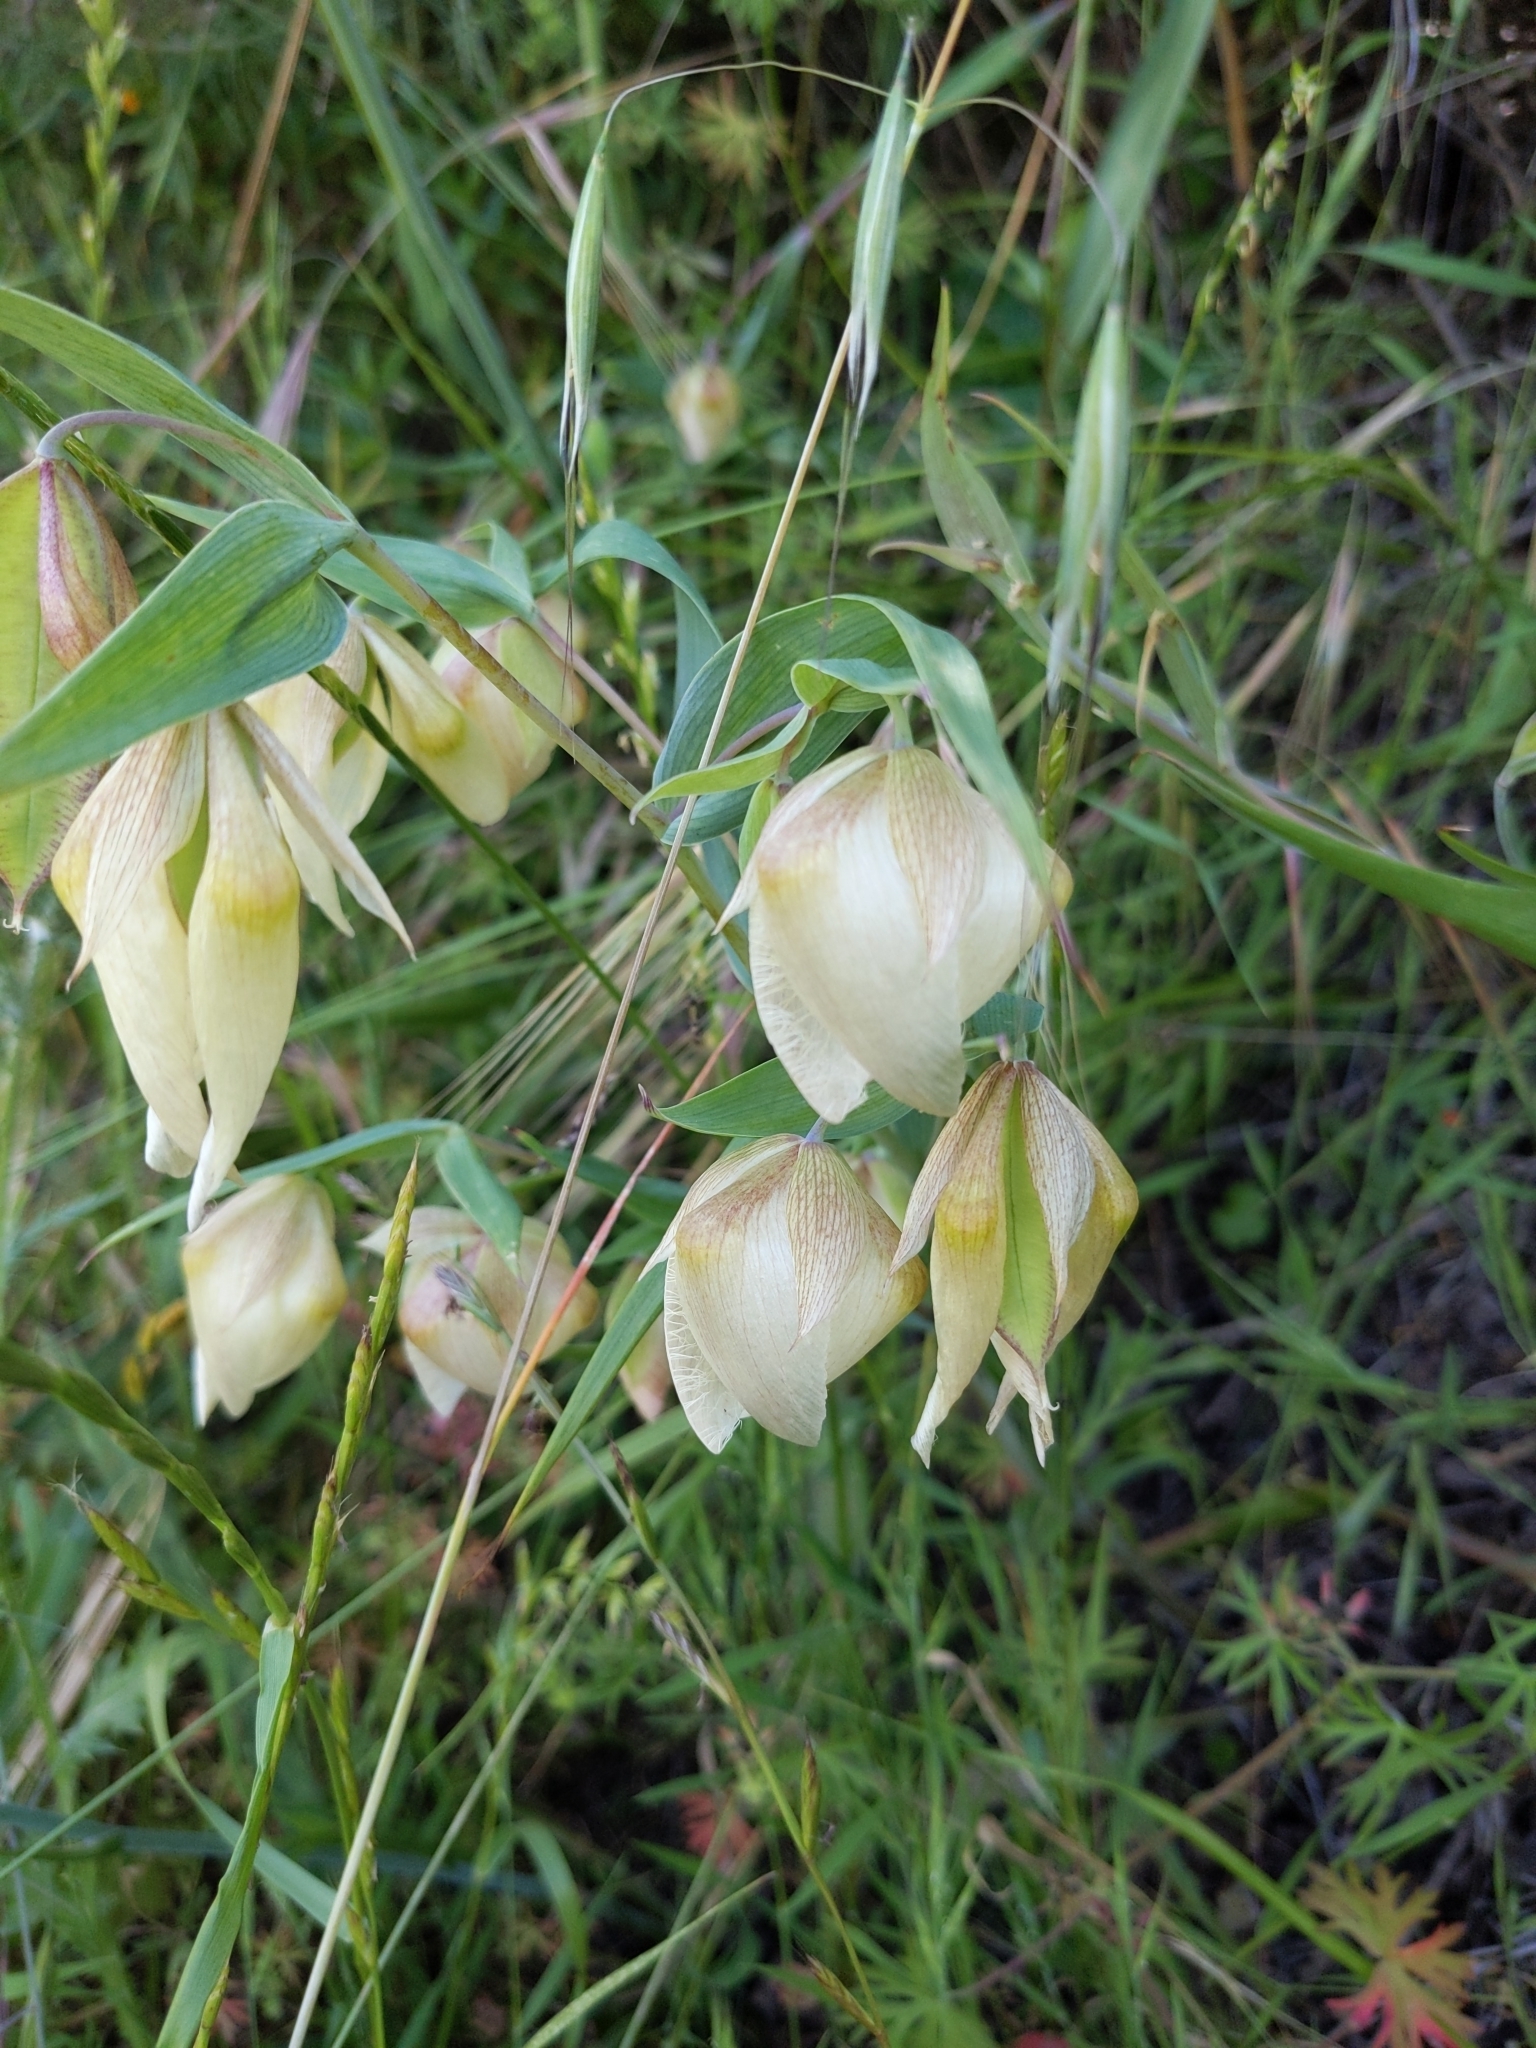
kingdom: Plantae
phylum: Tracheophyta
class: Liliopsida
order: Liliales
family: Liliaceae
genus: Calochortus
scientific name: Calochortus albus
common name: Fairy-lantern
